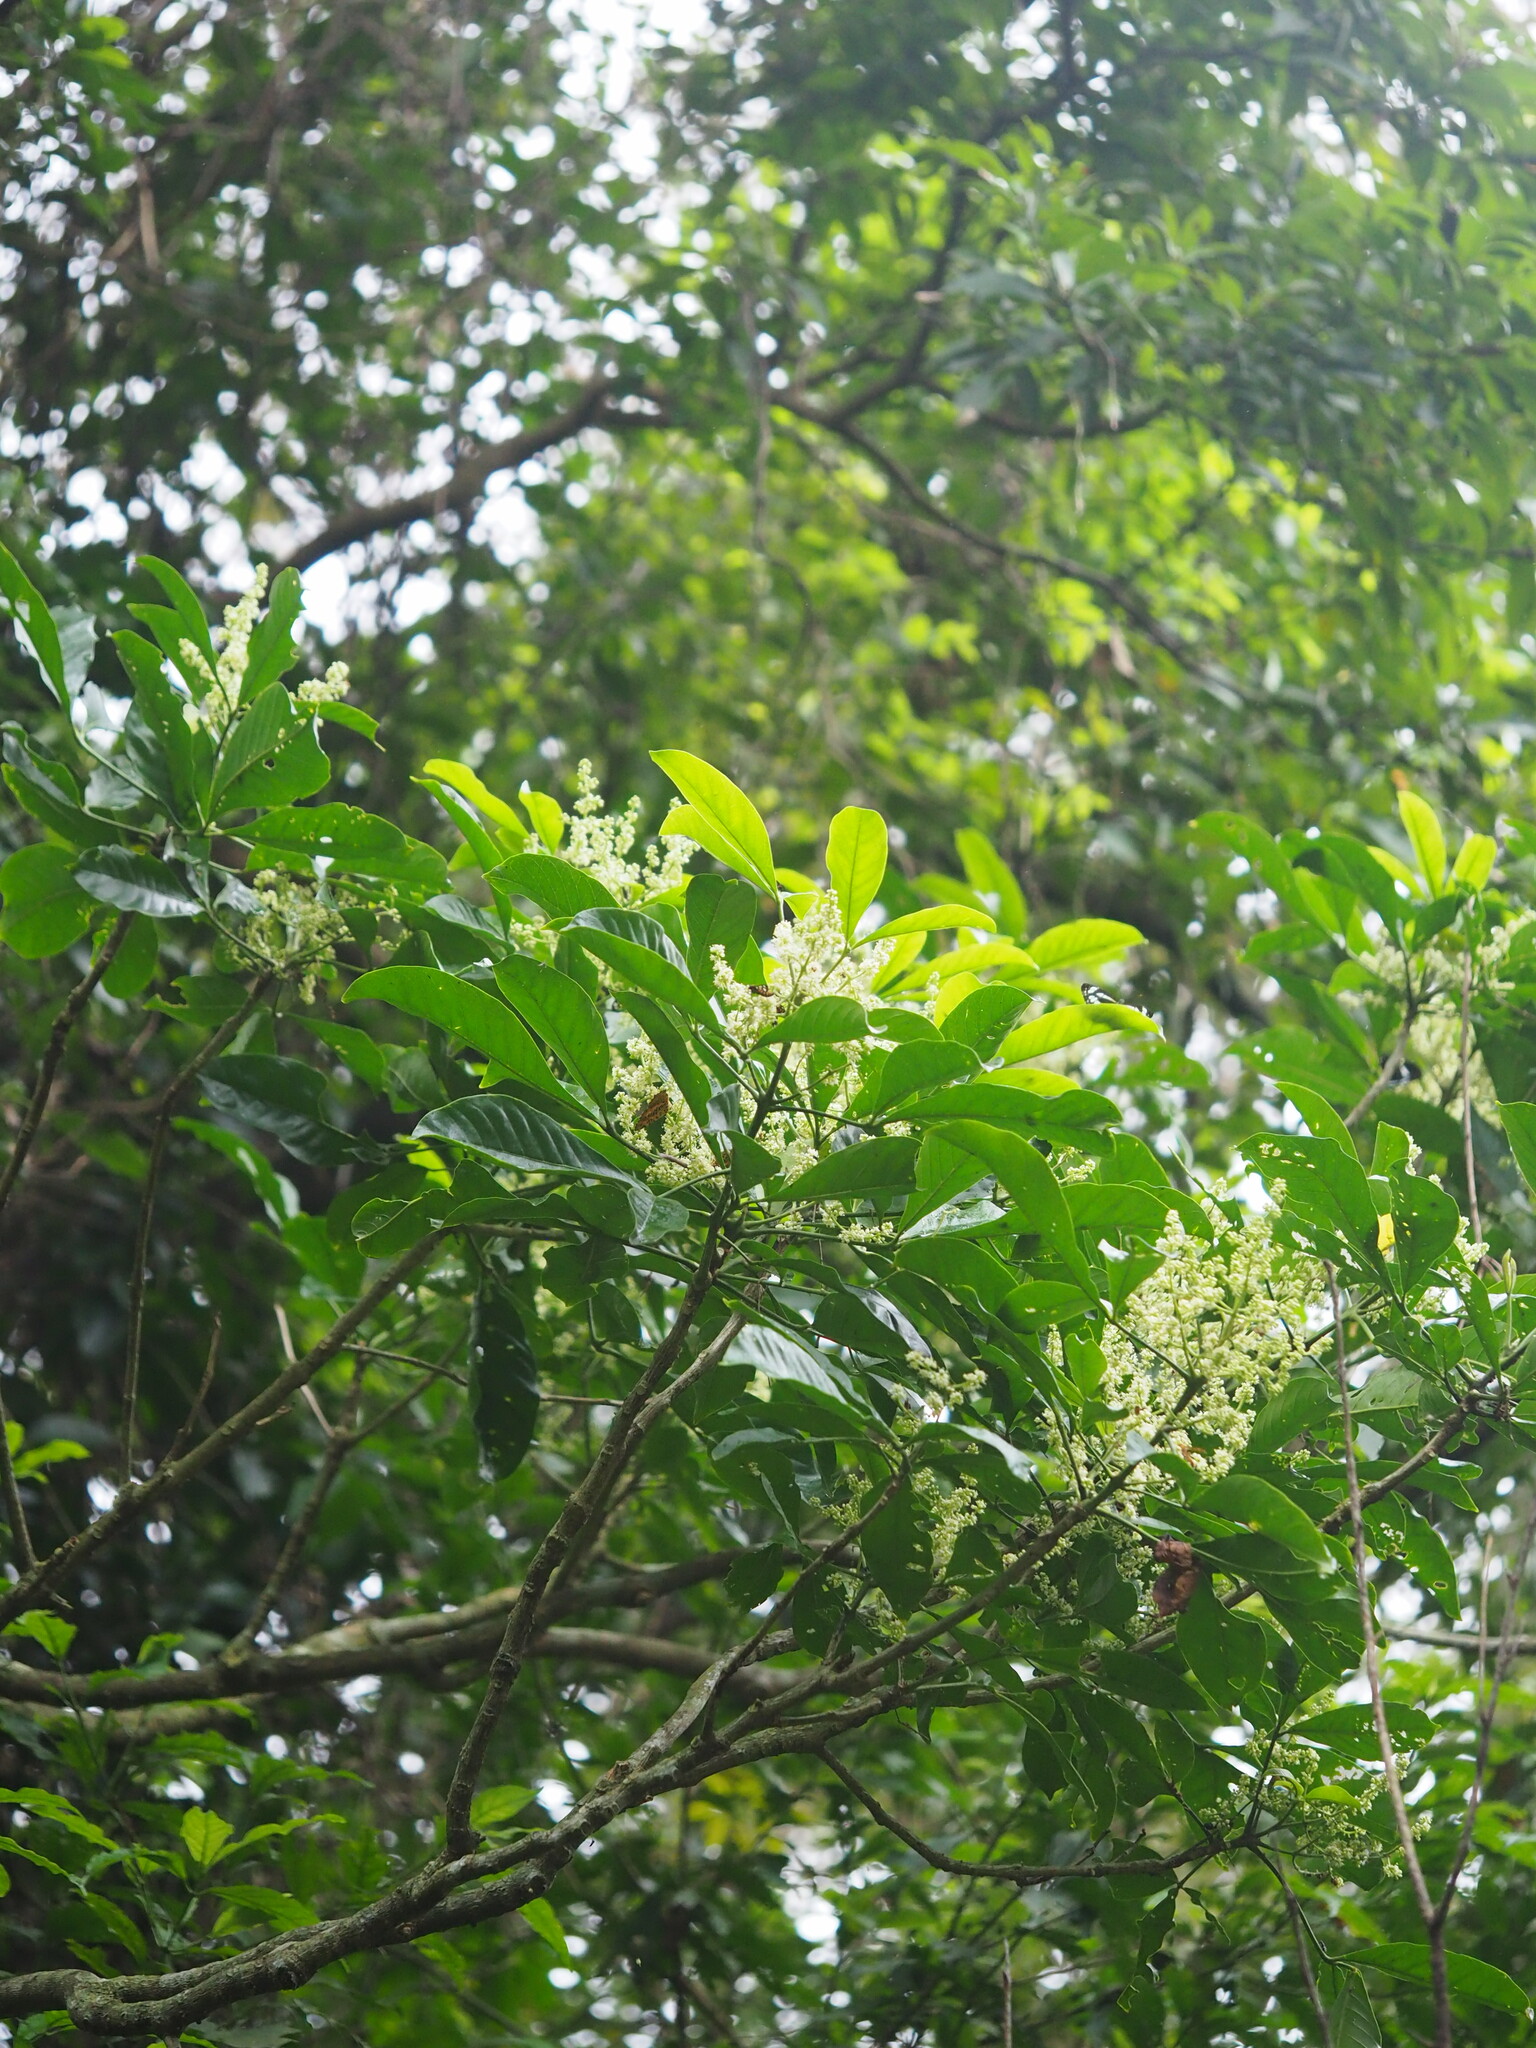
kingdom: Plantae
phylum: Tracheophyta
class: Magnoliopsida
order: Sapindales
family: Rutaceae
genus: Melicope
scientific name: Melicope semecarpifolia
